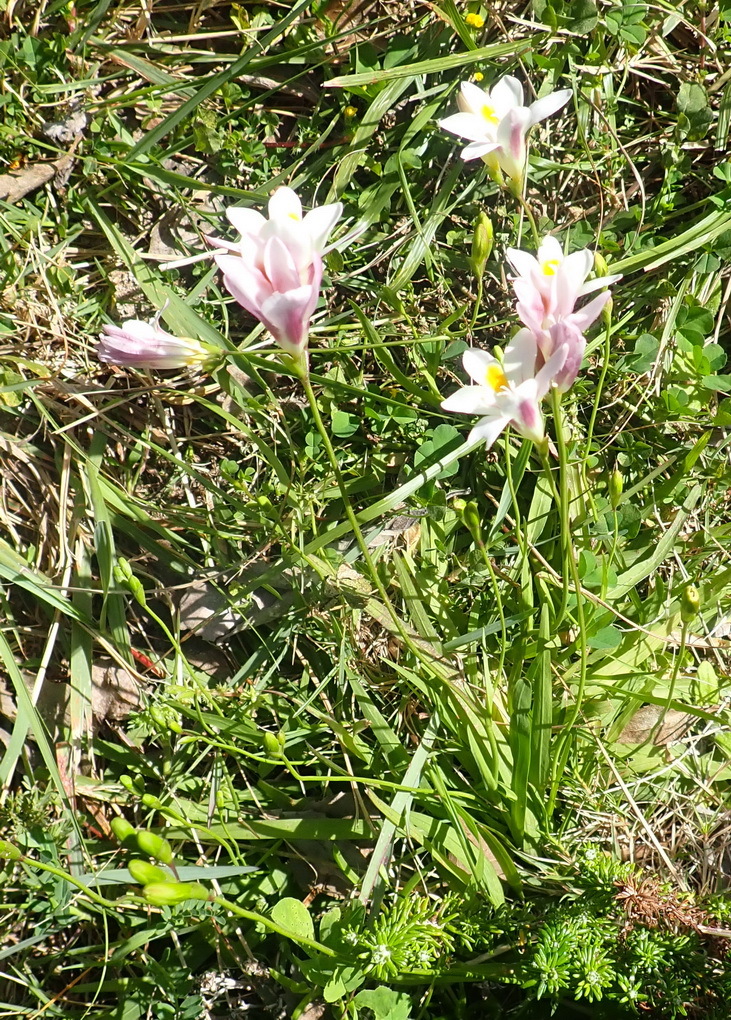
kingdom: Plantae
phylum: Tracheophyta
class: Liliopsida
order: Asparagales
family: Iridaceae
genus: Freesia
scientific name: Freesia leichtlinii
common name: Freesia
